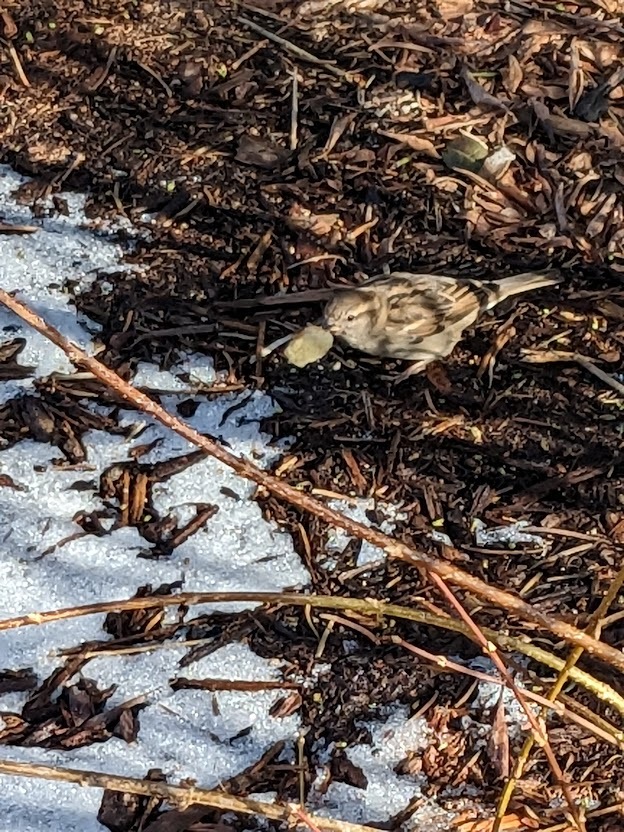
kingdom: Animalia
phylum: Chordata
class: Aves
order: Passeriformes
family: Passeridae
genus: Passer
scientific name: Passer domesticus
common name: House sparrow
